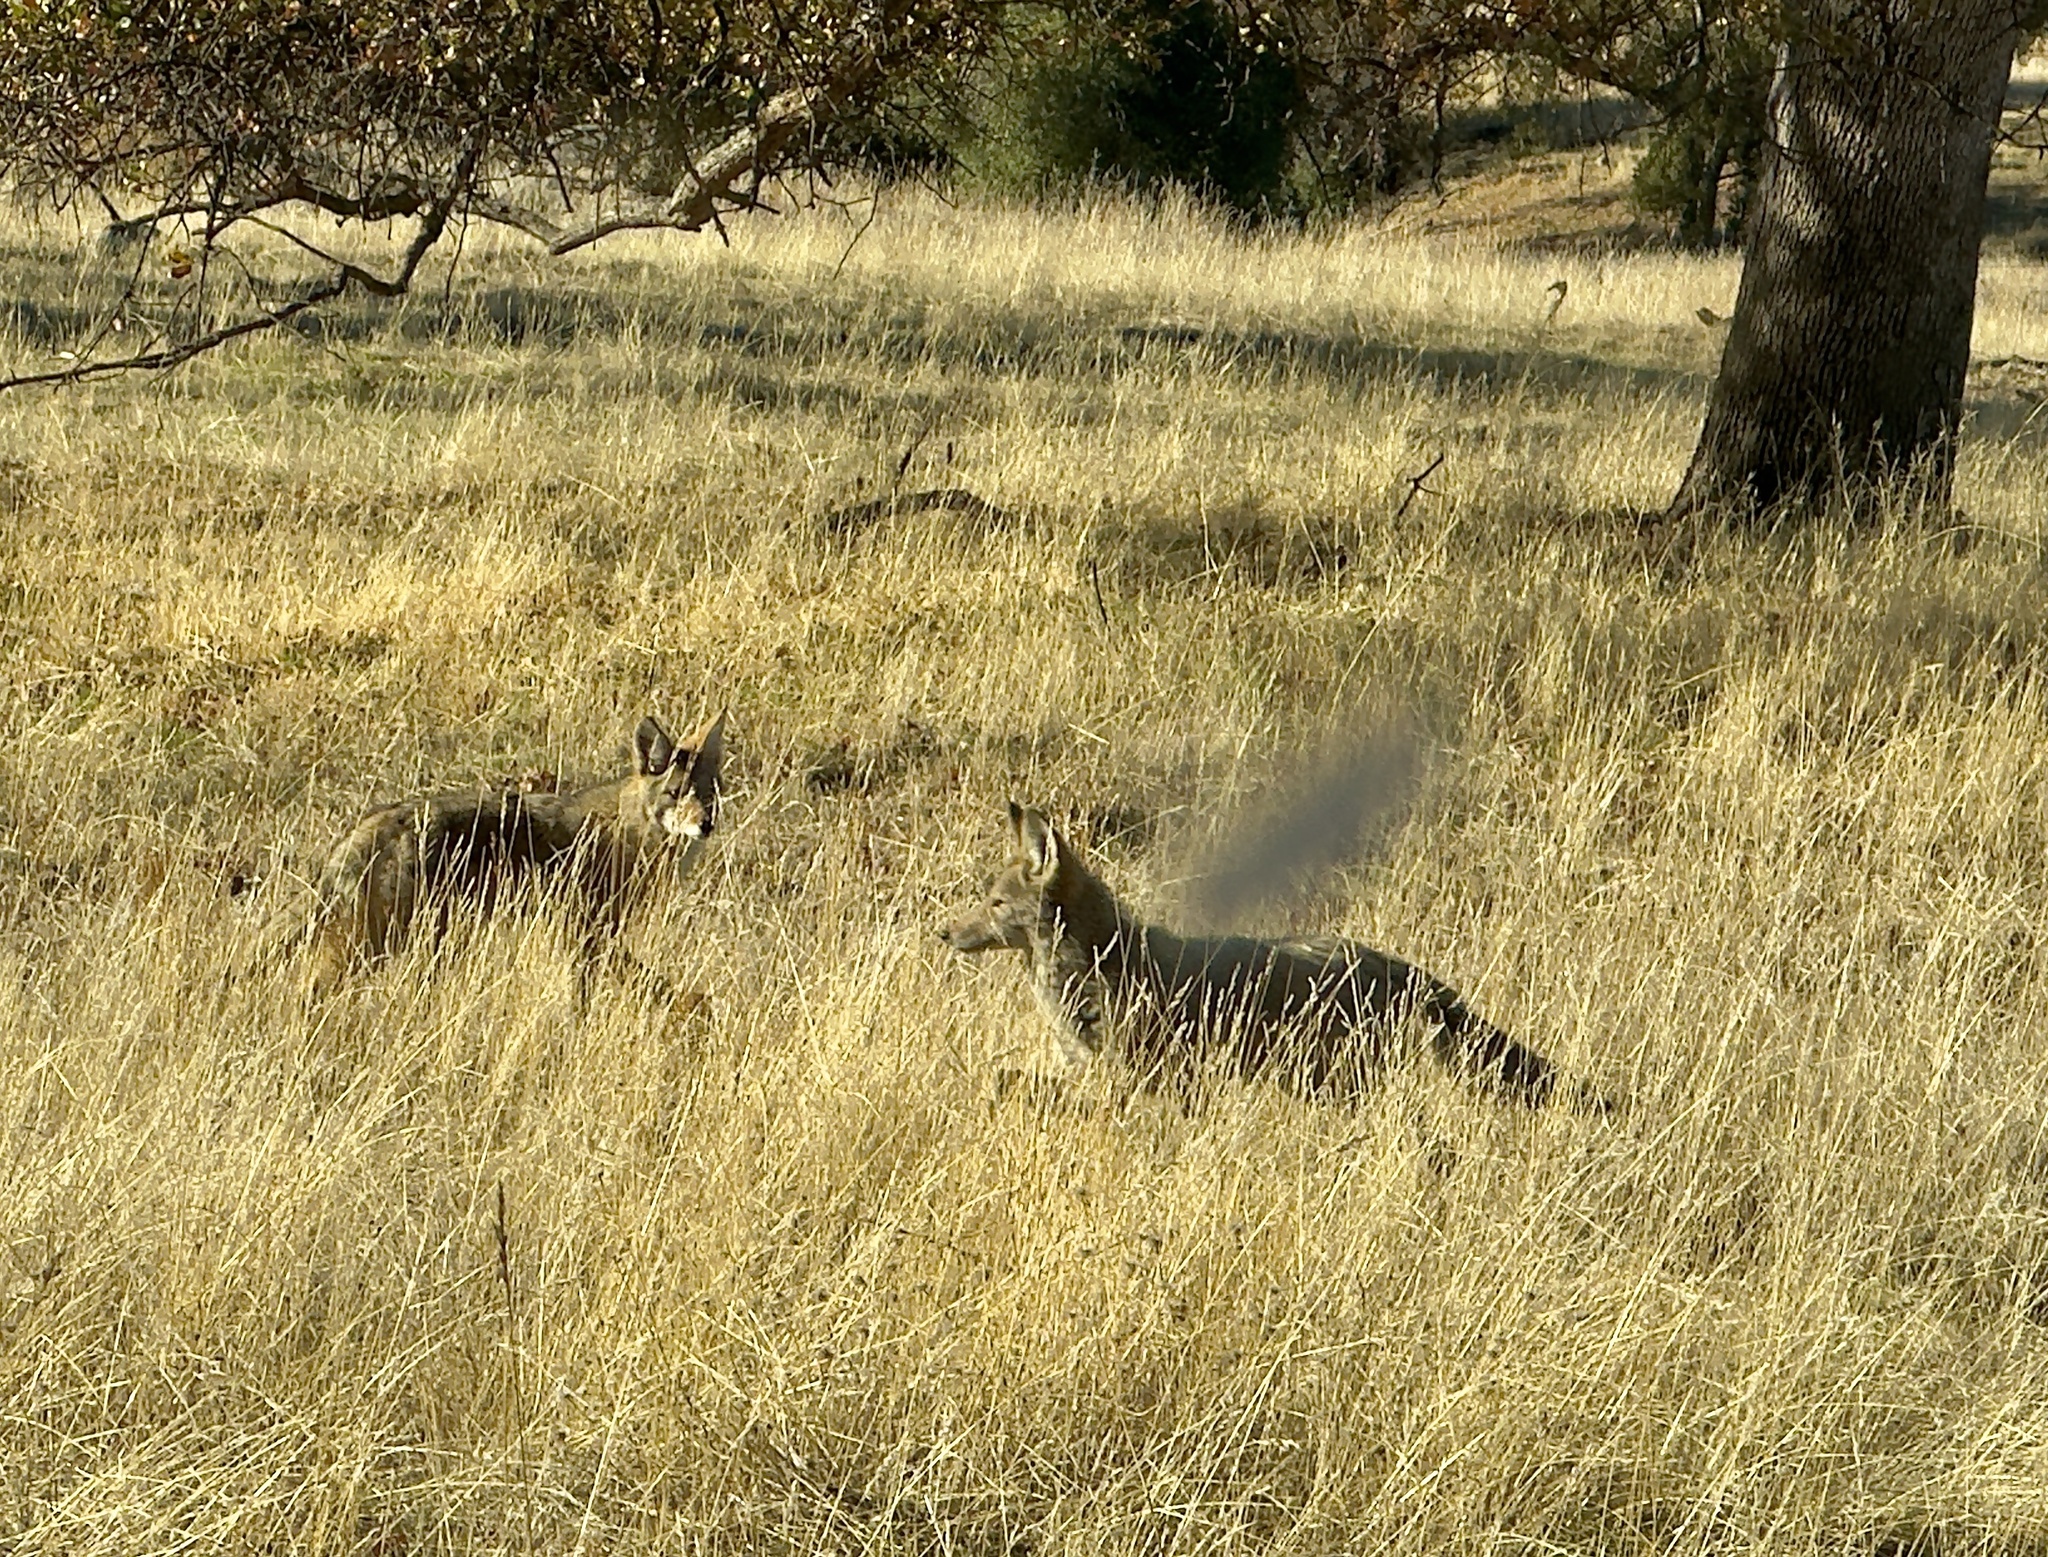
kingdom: Animalia
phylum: Chordata
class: Mammalia
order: Carnivora
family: Canidae
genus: Canis
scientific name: Canis latrans
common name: Coyote
